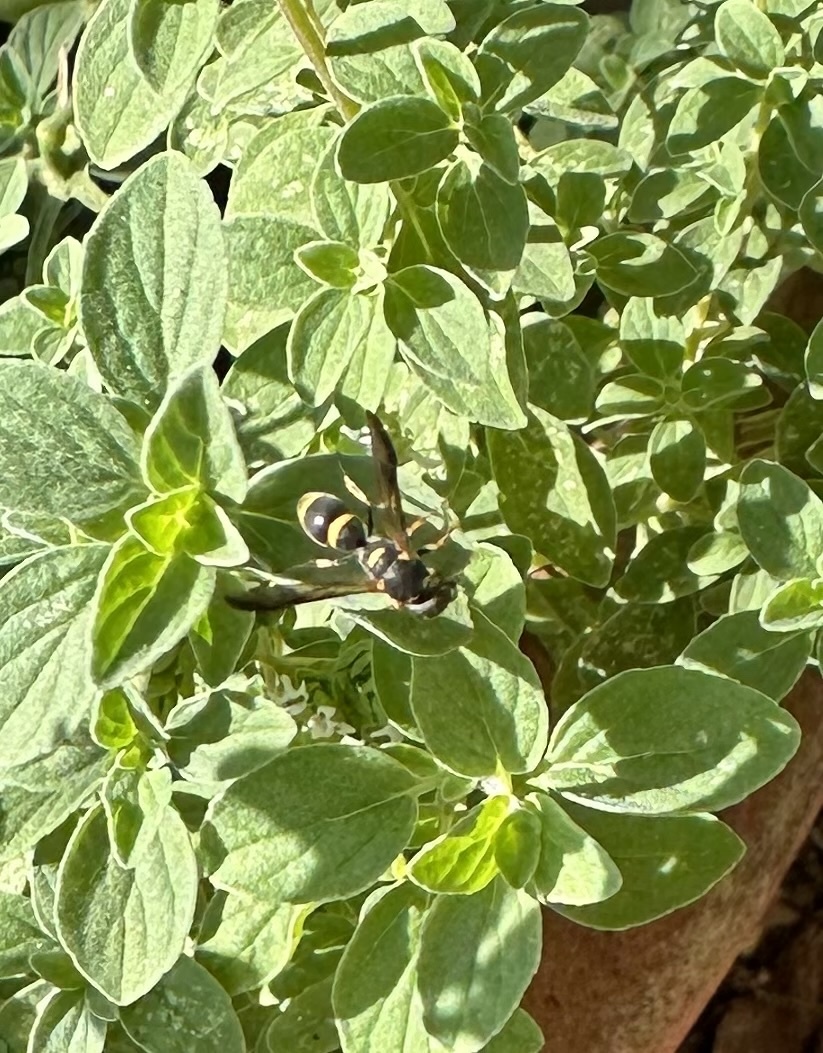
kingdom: Animalia
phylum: Arthropoda
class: Insecta
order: Hymenoptera
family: Eumenidae
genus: Parancistrocerus
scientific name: Parancistrocerus perennis
